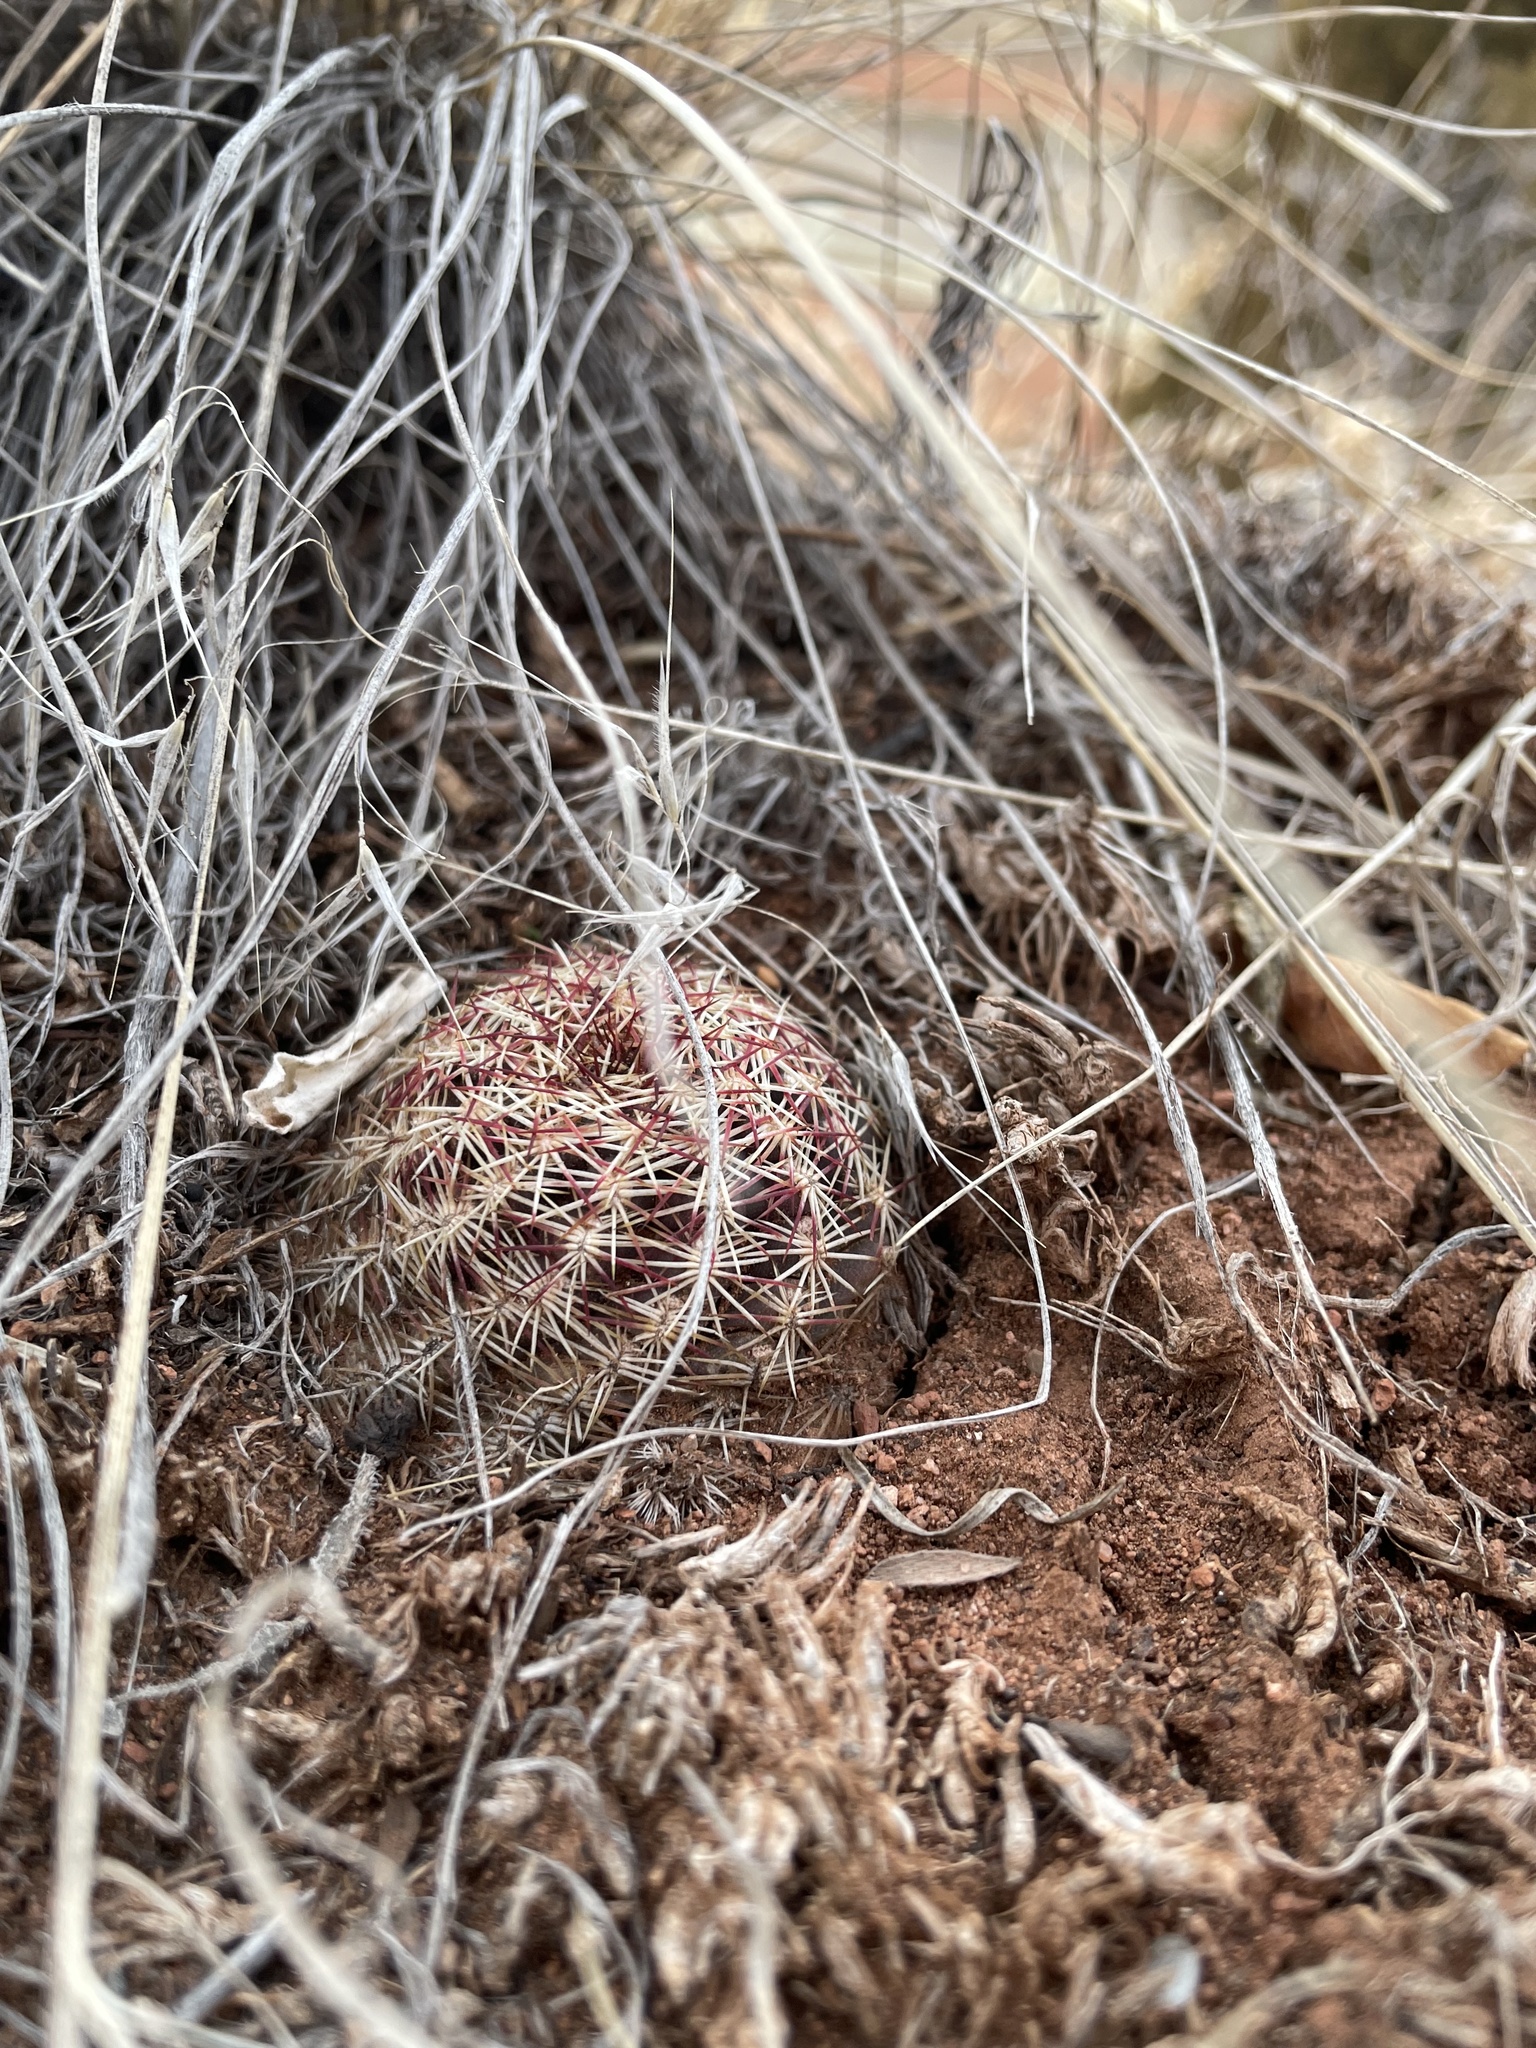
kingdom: Plantae
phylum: Tracheophyta
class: Magnoliopsida
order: Caryophyllales
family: Cactaceae
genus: Echinocereus
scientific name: Echinocereus viridiflorus
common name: Nylon hedgehog cactus
